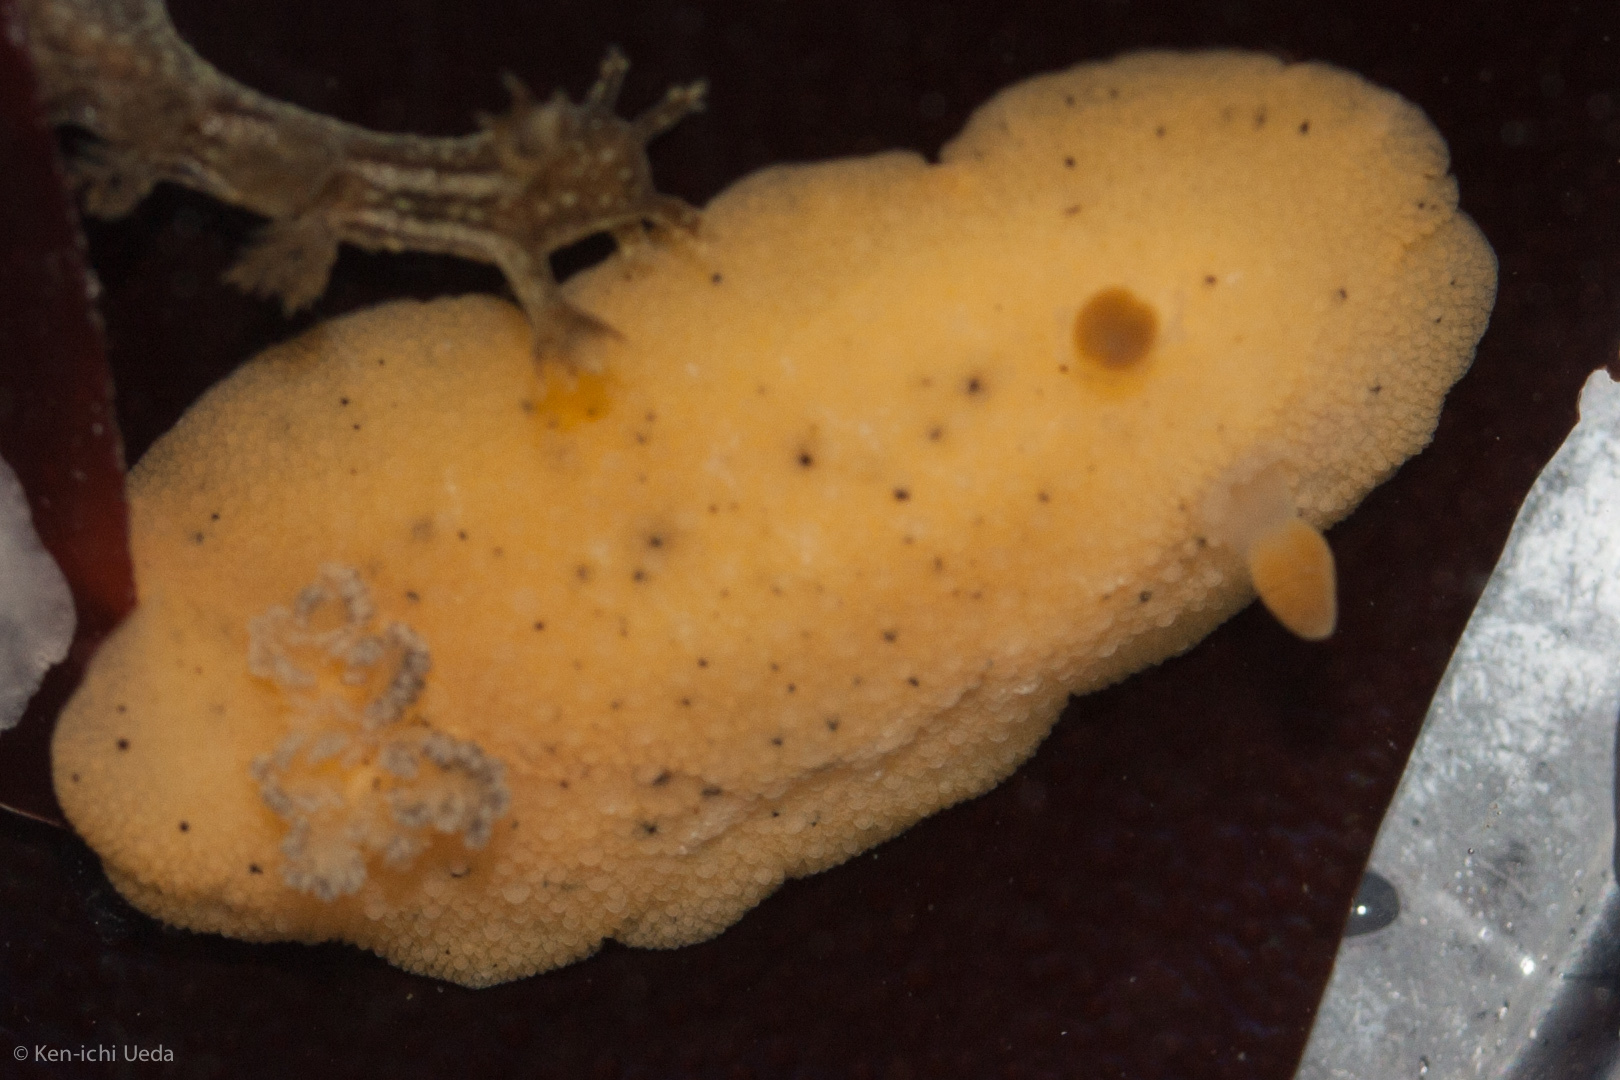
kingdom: Animalia
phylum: Mollusca
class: Gastropoda
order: Nudibranchia
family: Discodorididae
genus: Geitodoris
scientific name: Geitodoris heathi
